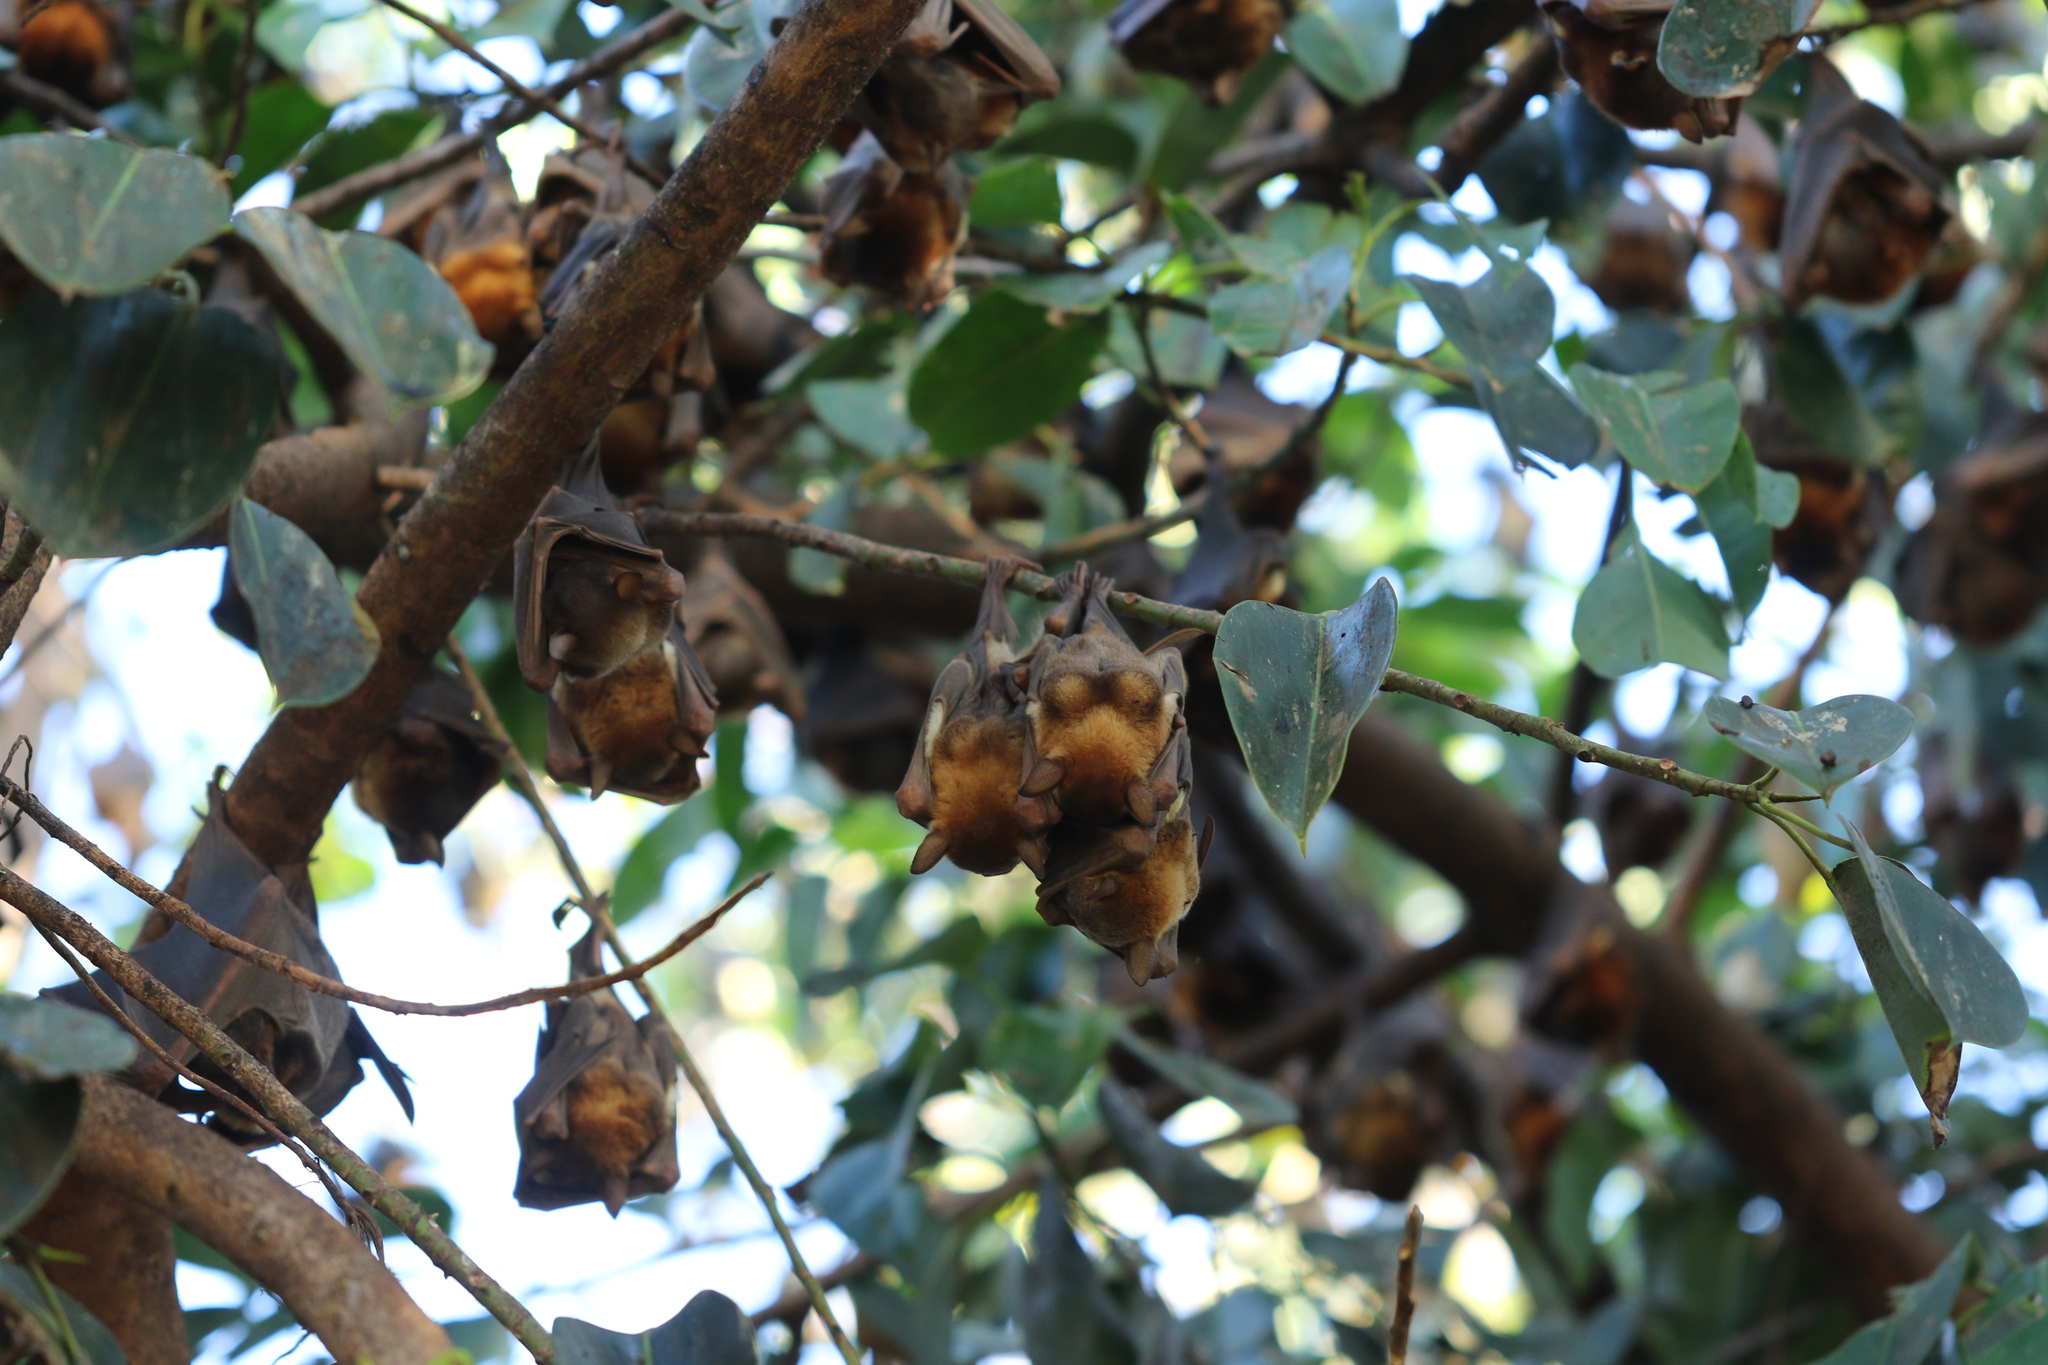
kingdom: Animalia
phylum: Chordata
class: Mammalia
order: Chiroptera
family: Pteropodidae
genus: Pteropus
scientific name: Pteropus scapulatus
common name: Little red flying fox
